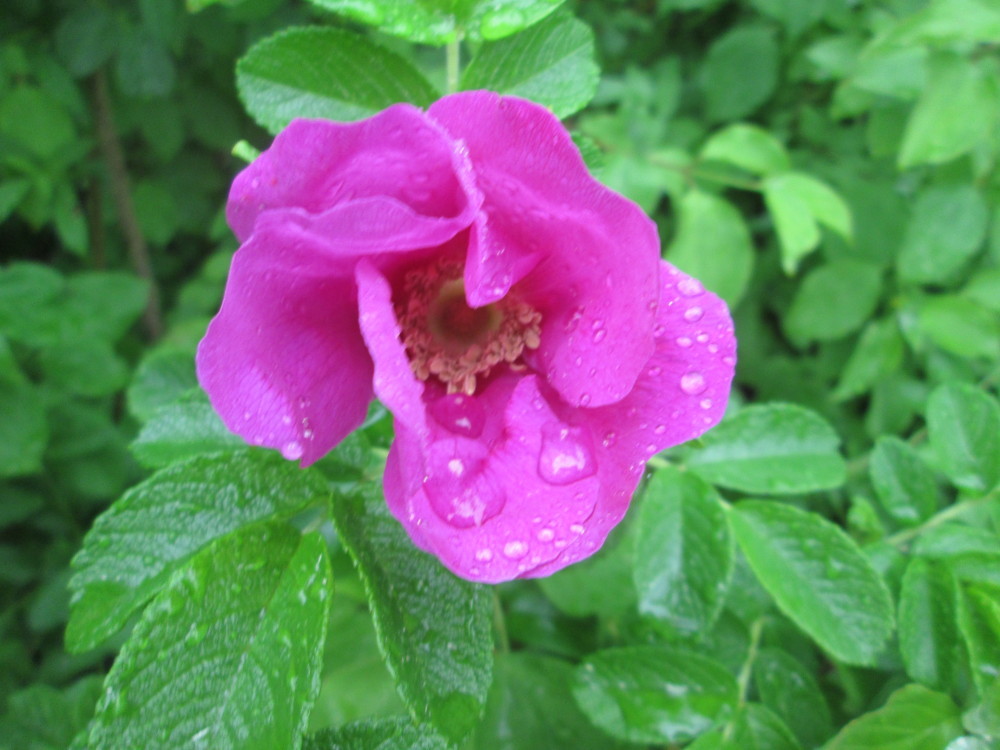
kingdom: Plantae
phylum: Tracheophyta
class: Magnoliopsida
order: Rosales
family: Rosaceae
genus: Rosa
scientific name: Rosa rugosa
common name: Japanese rose
